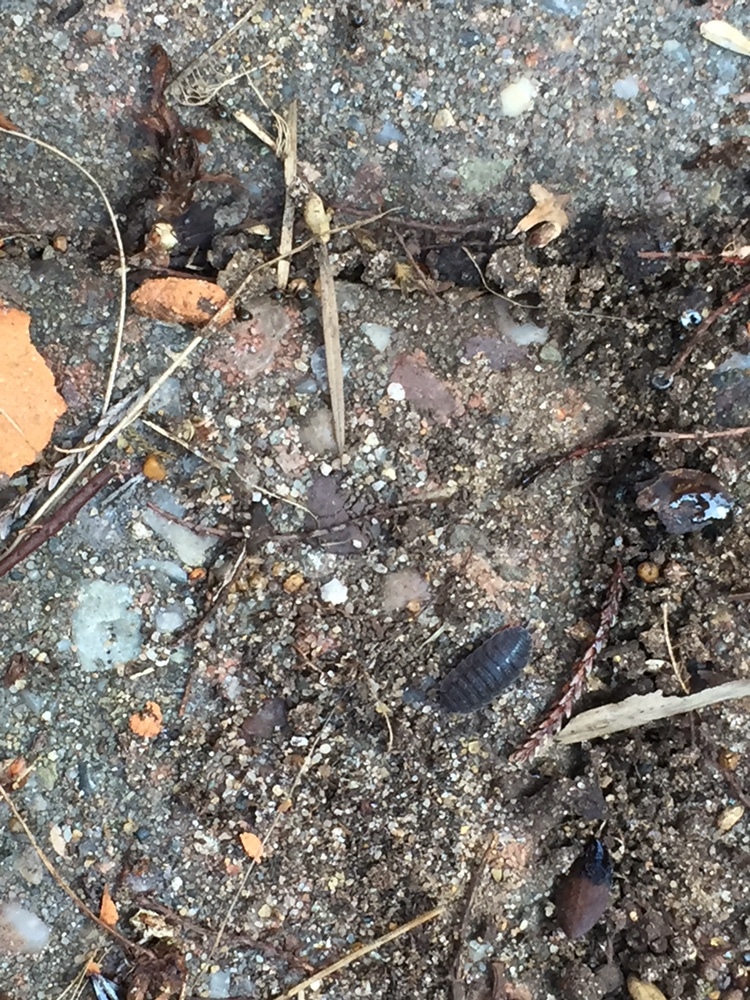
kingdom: Animalia
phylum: Arthropoda
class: Malacostraca
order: Isopoda
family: Porcellionidae
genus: Porcellio
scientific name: Porcellio scaber
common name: Common rough woodlouse
